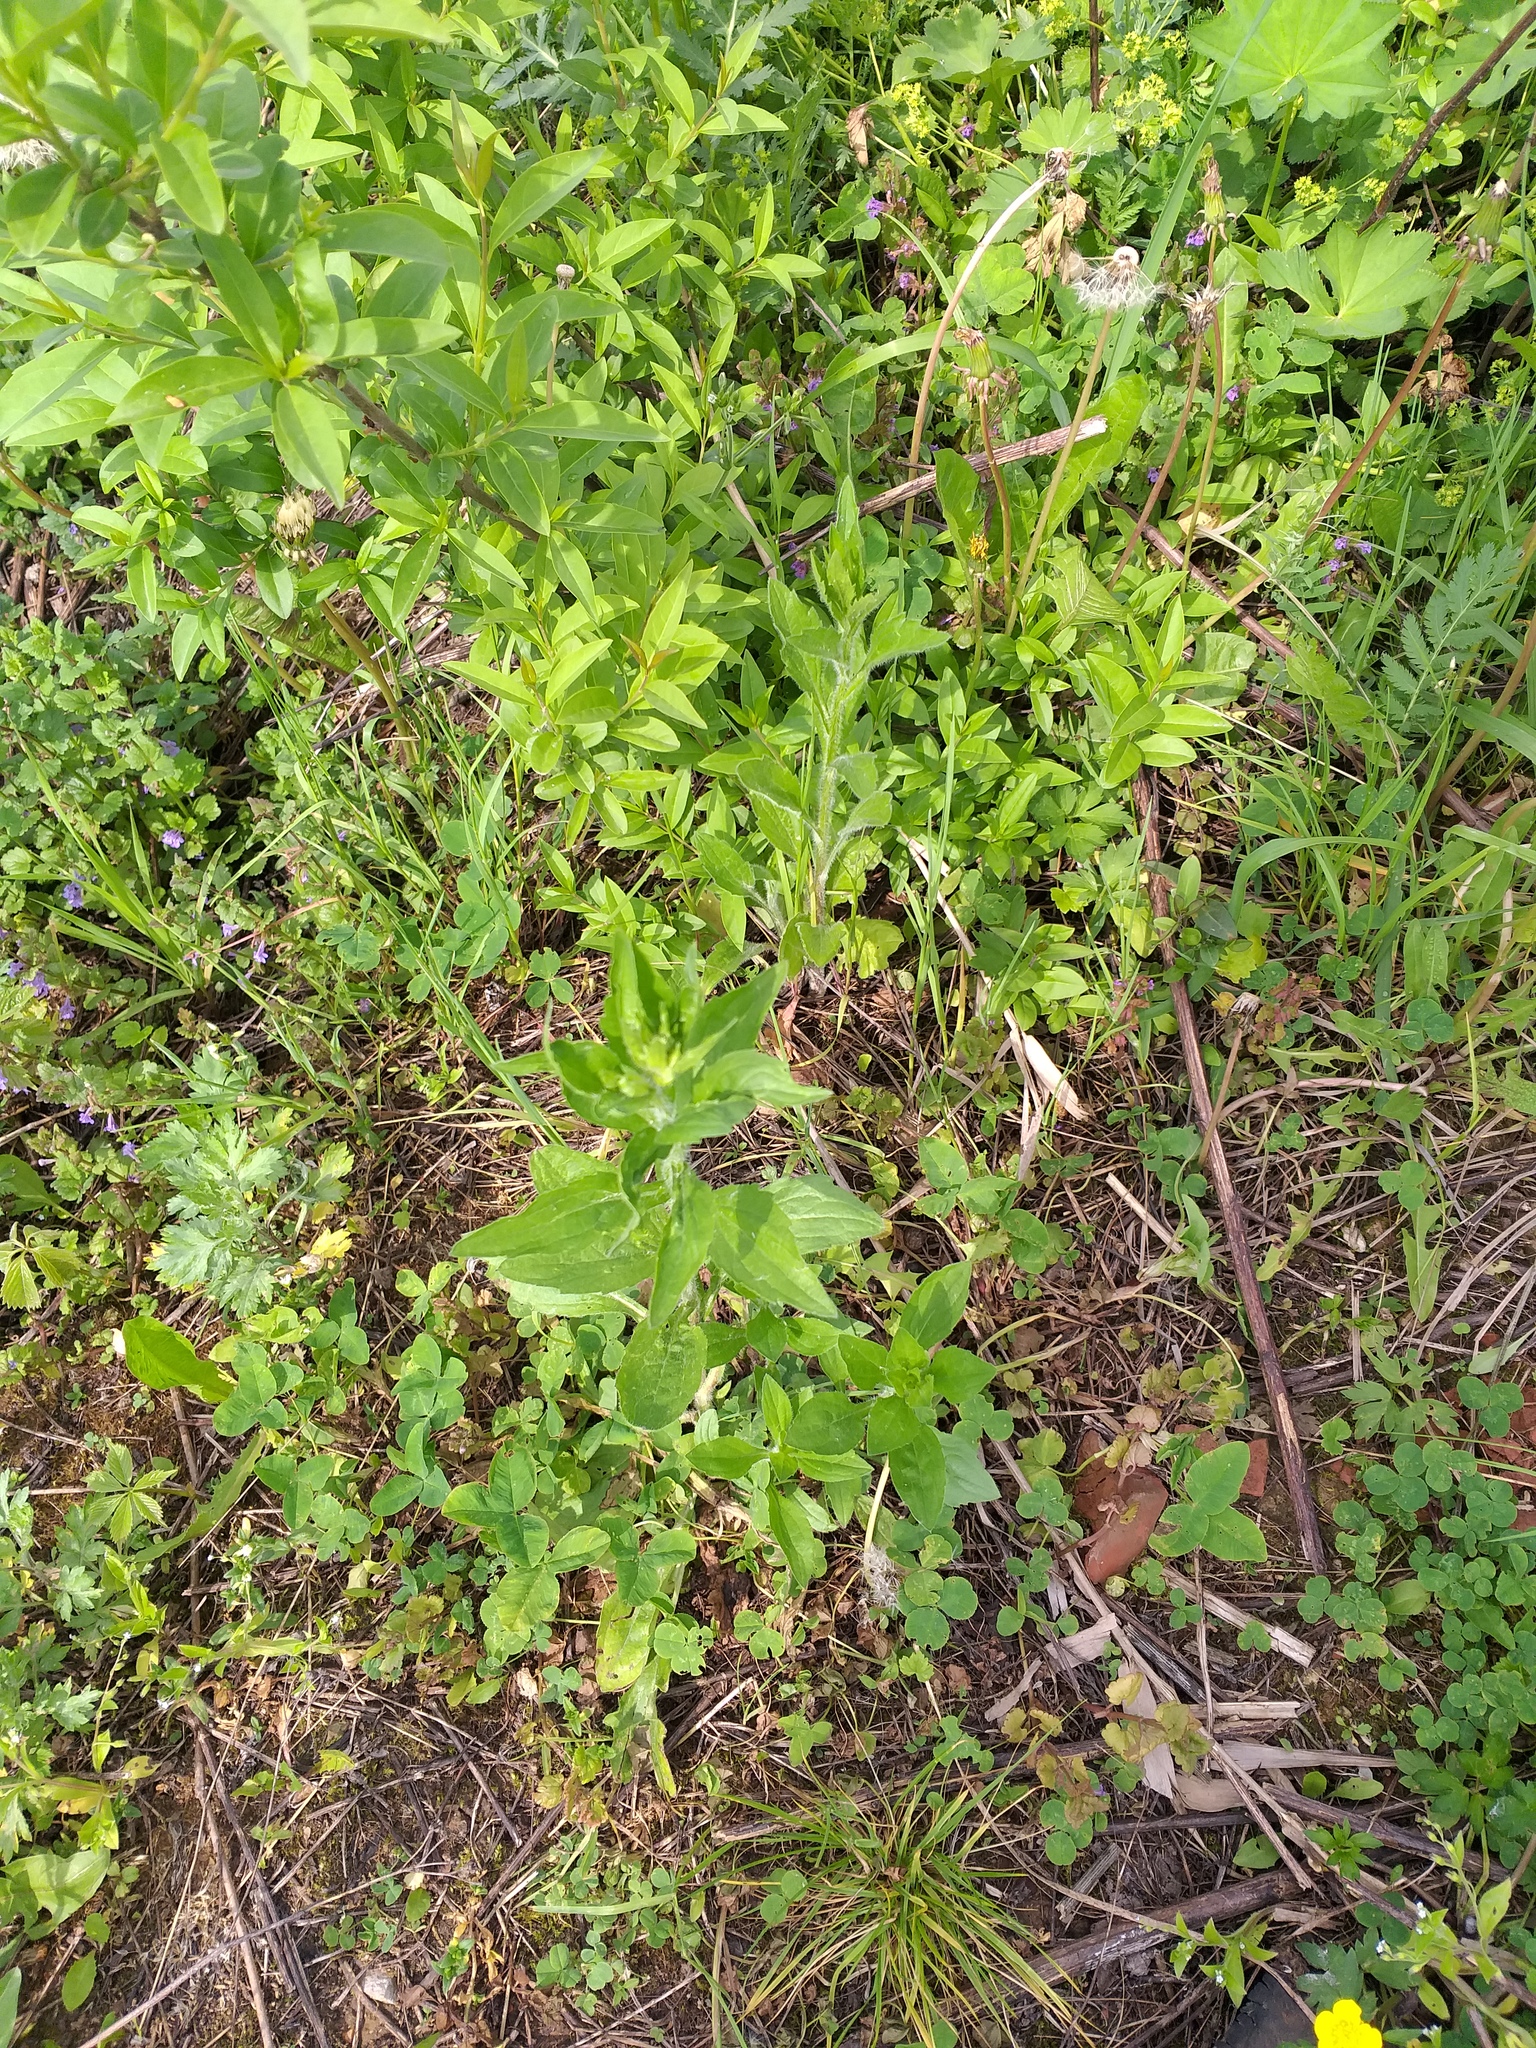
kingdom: Plantae
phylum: Tracheophyta
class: Magnoliopsida
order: Asterales
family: Asteraceae
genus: Erigeron
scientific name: Erigeron annuus
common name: Tall fleabane
